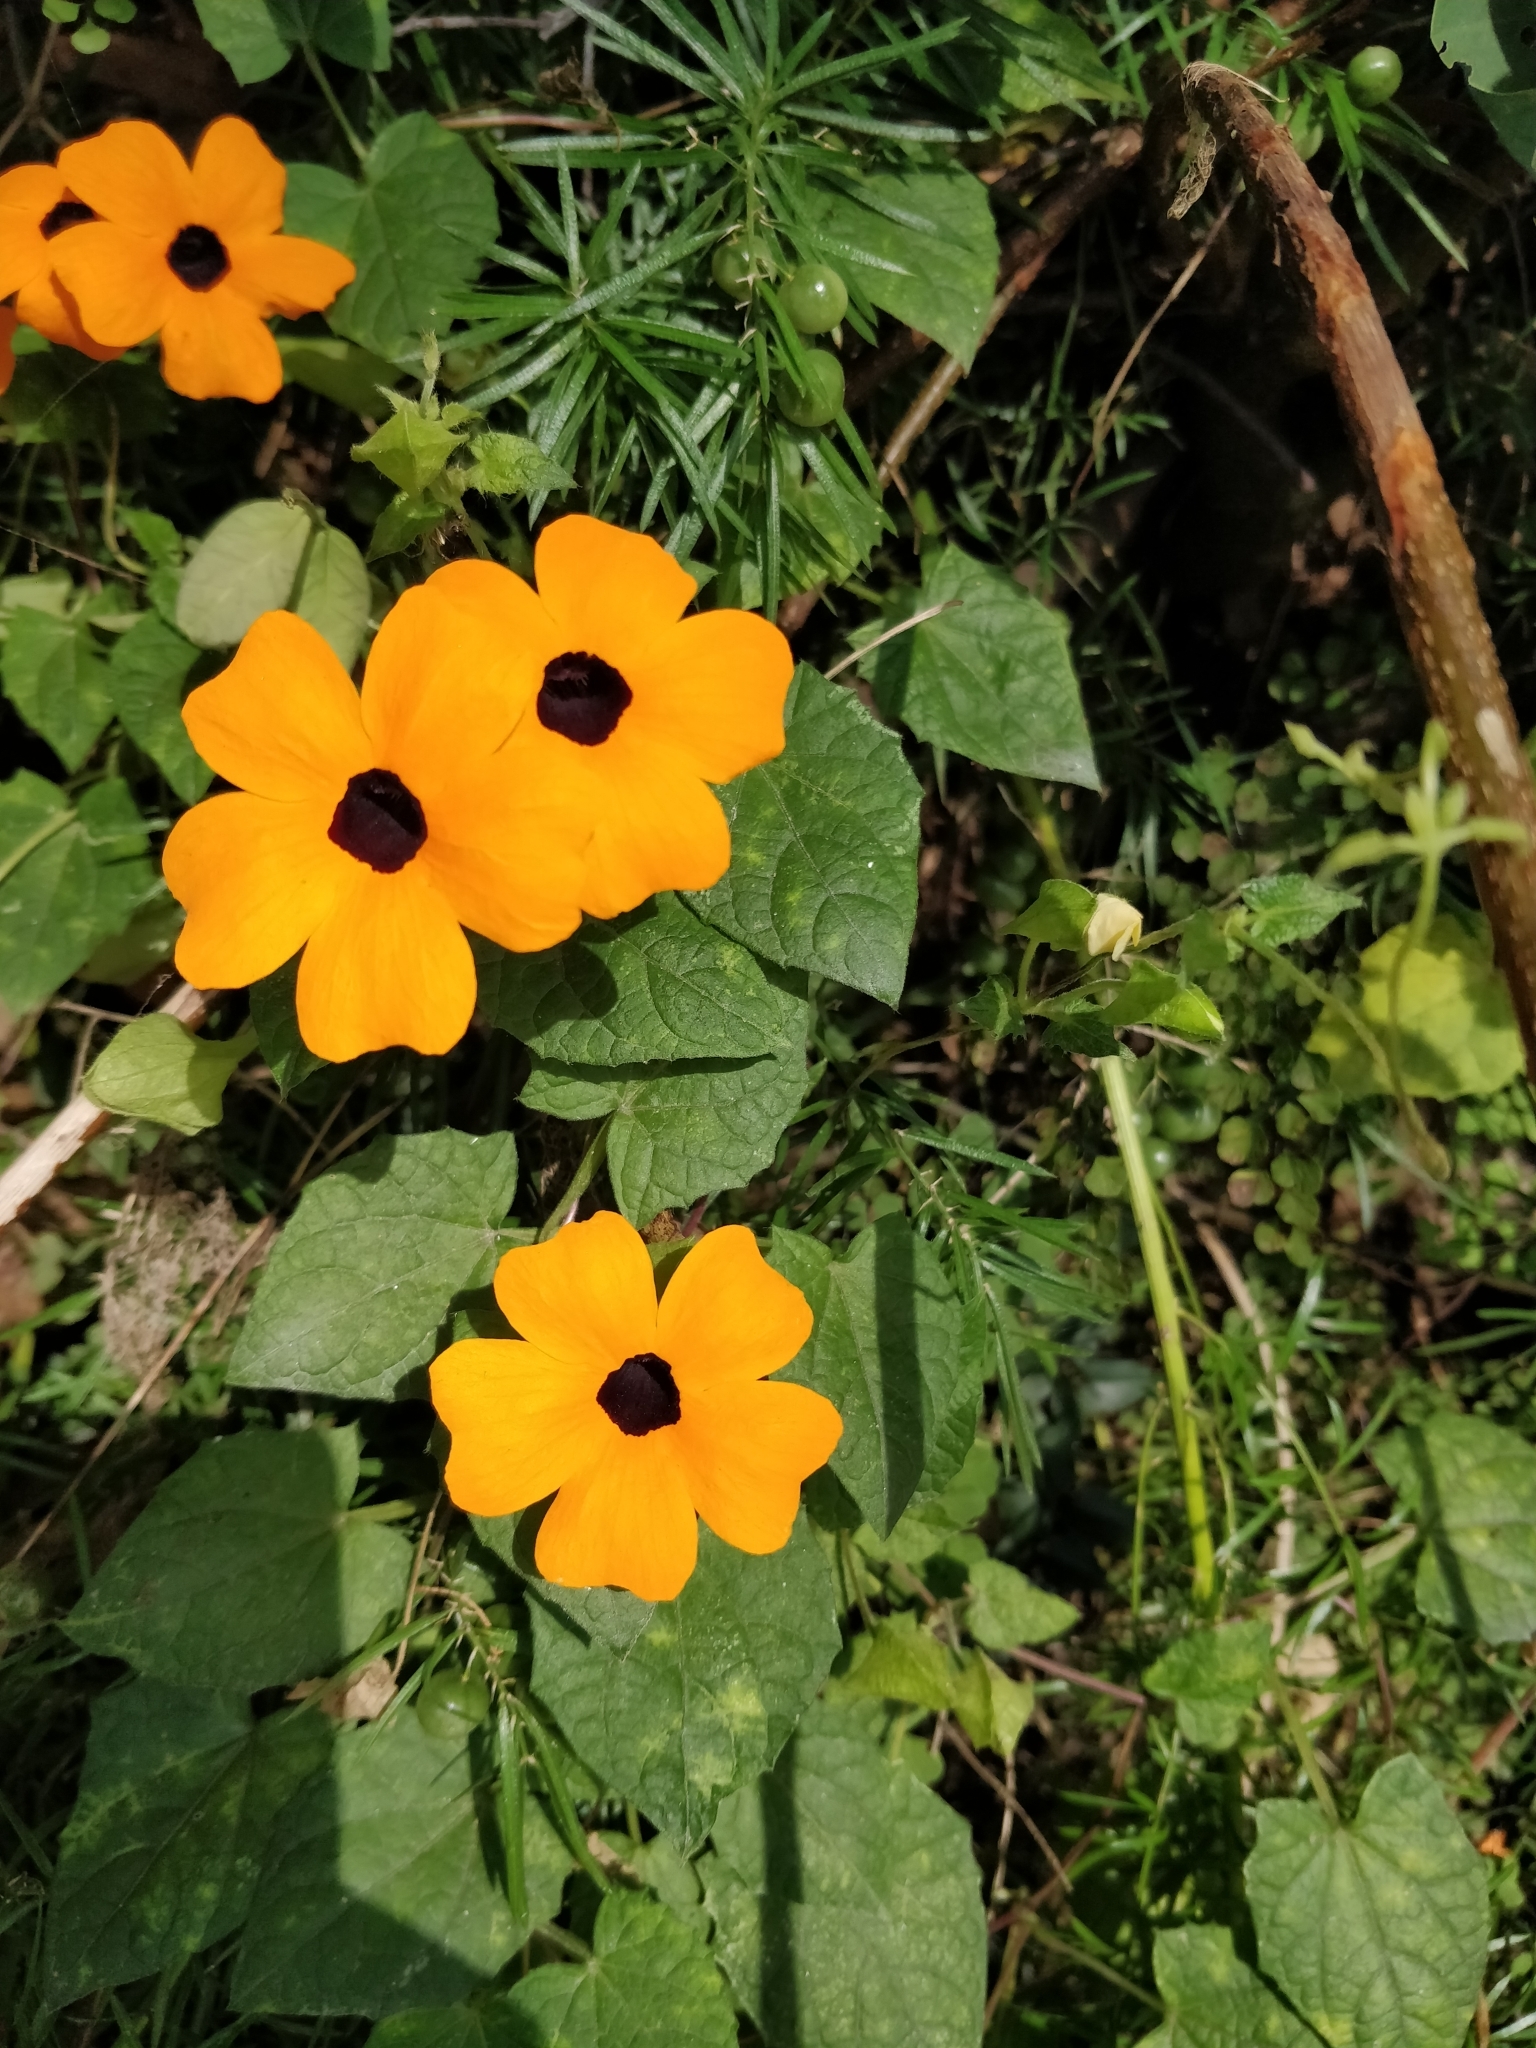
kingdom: Plantae
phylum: Tracheophyta
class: Magnoliopsida
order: Lamiales
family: Acanthaceae
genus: Thunbergia
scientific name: Thunbergia alata
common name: Blackeyed susan vine
